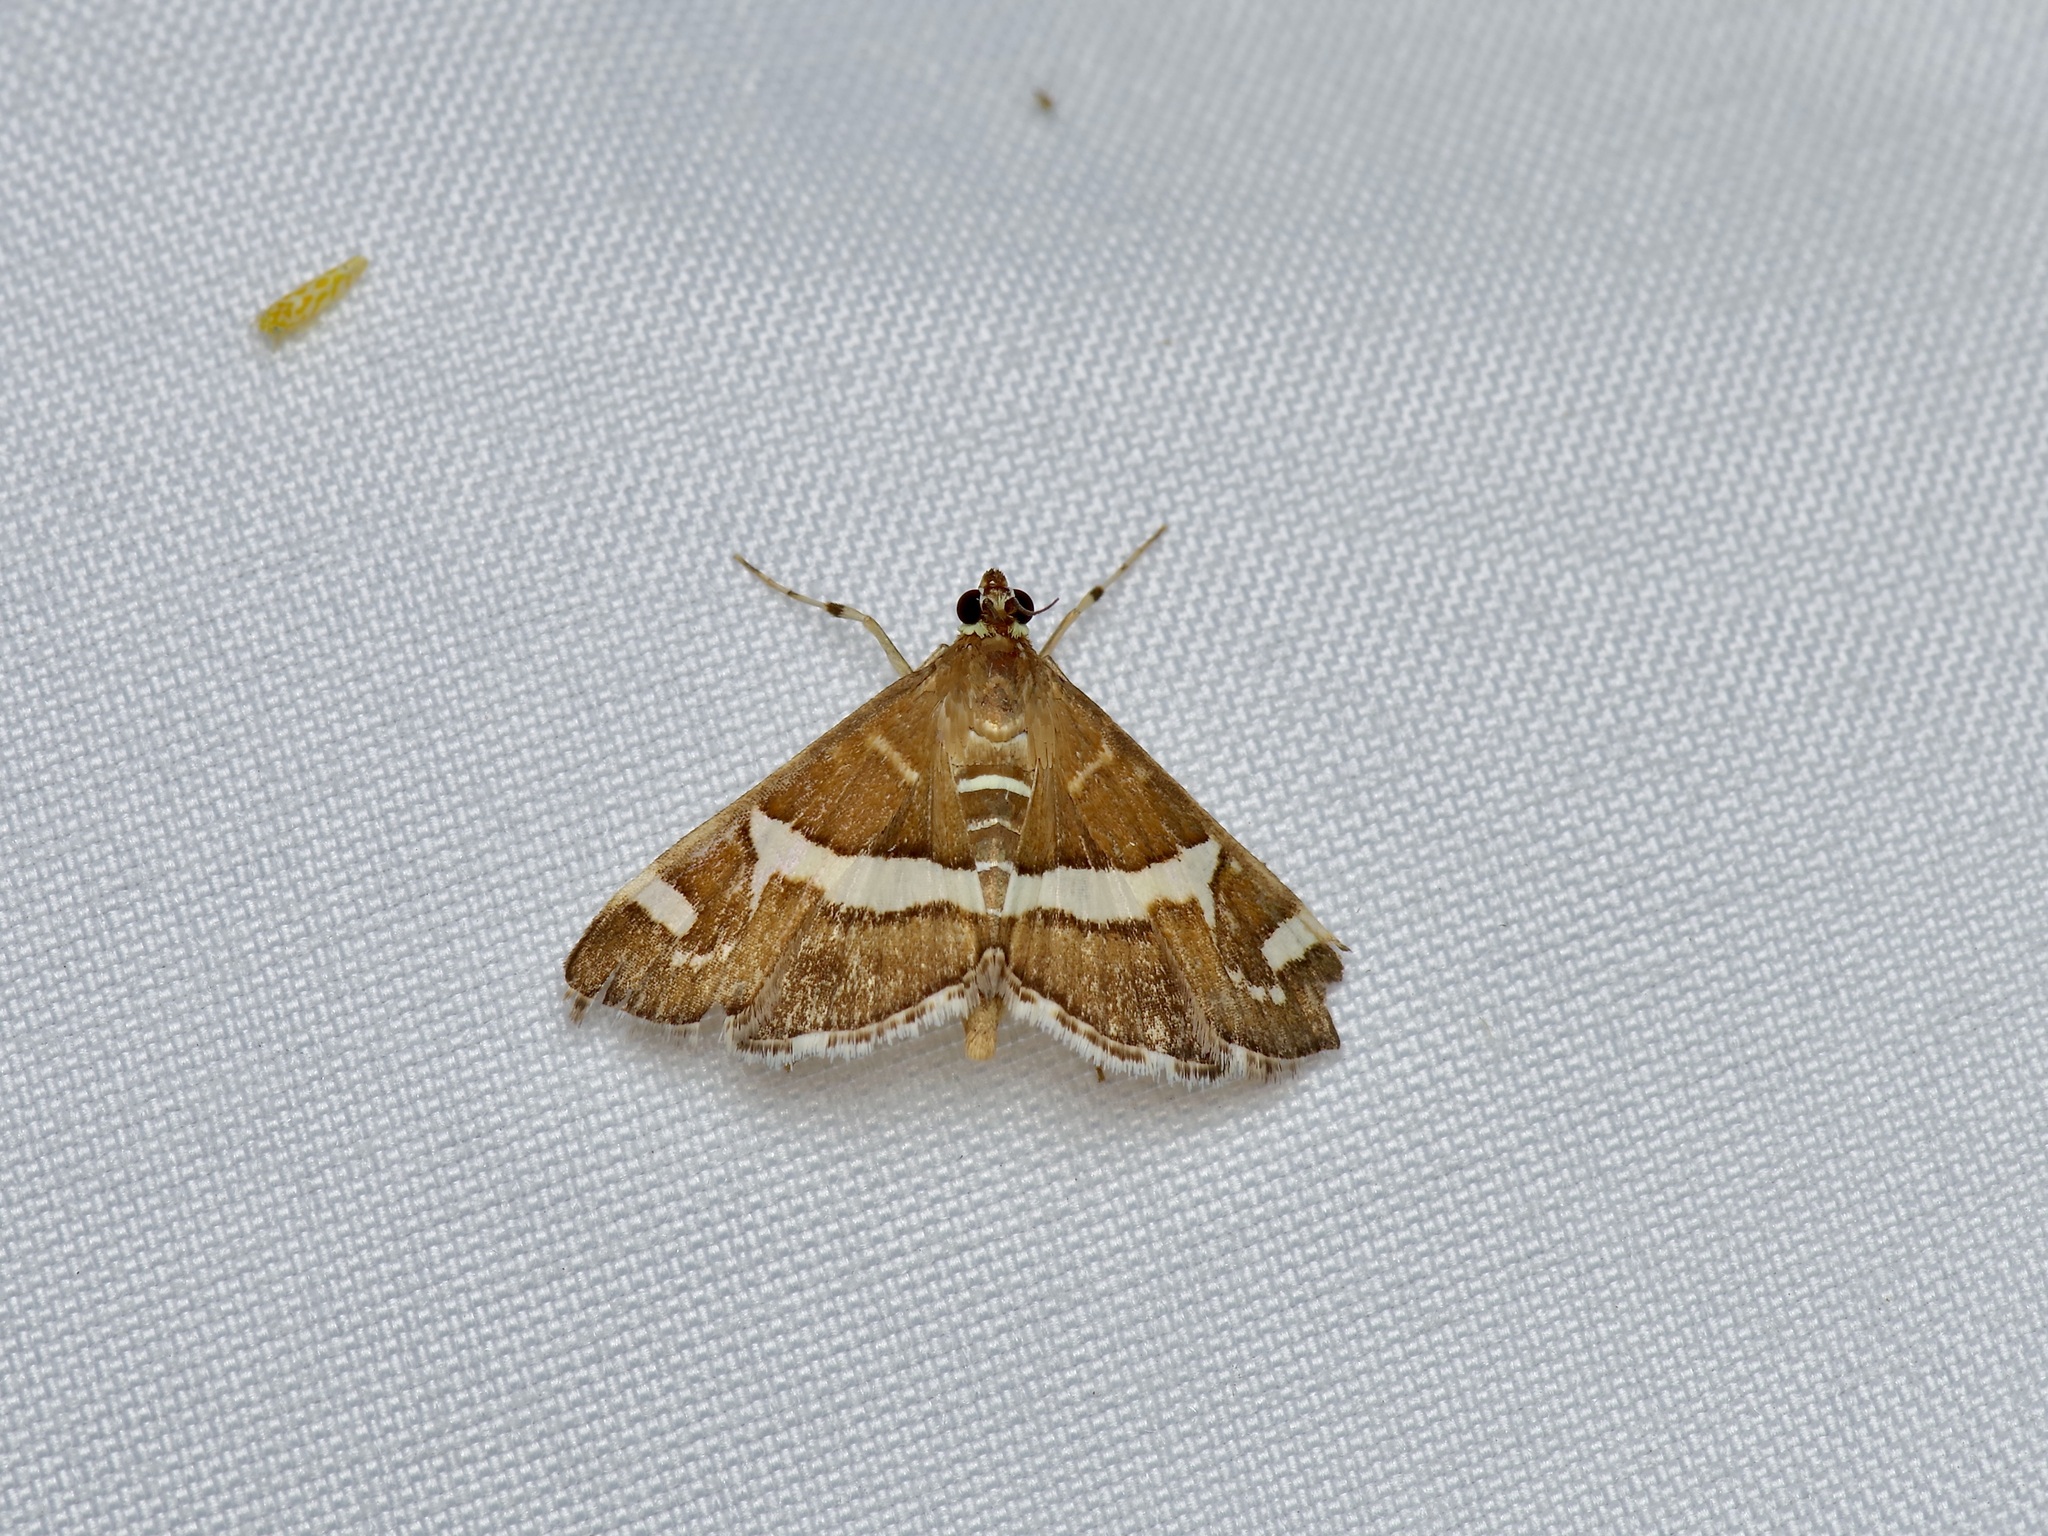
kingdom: Animalia
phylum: Arthropoda
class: Insecta
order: Lepidoptera
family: Crambidae
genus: Spoladea
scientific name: Spoladea recurvalis
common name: Beet webworm moth
